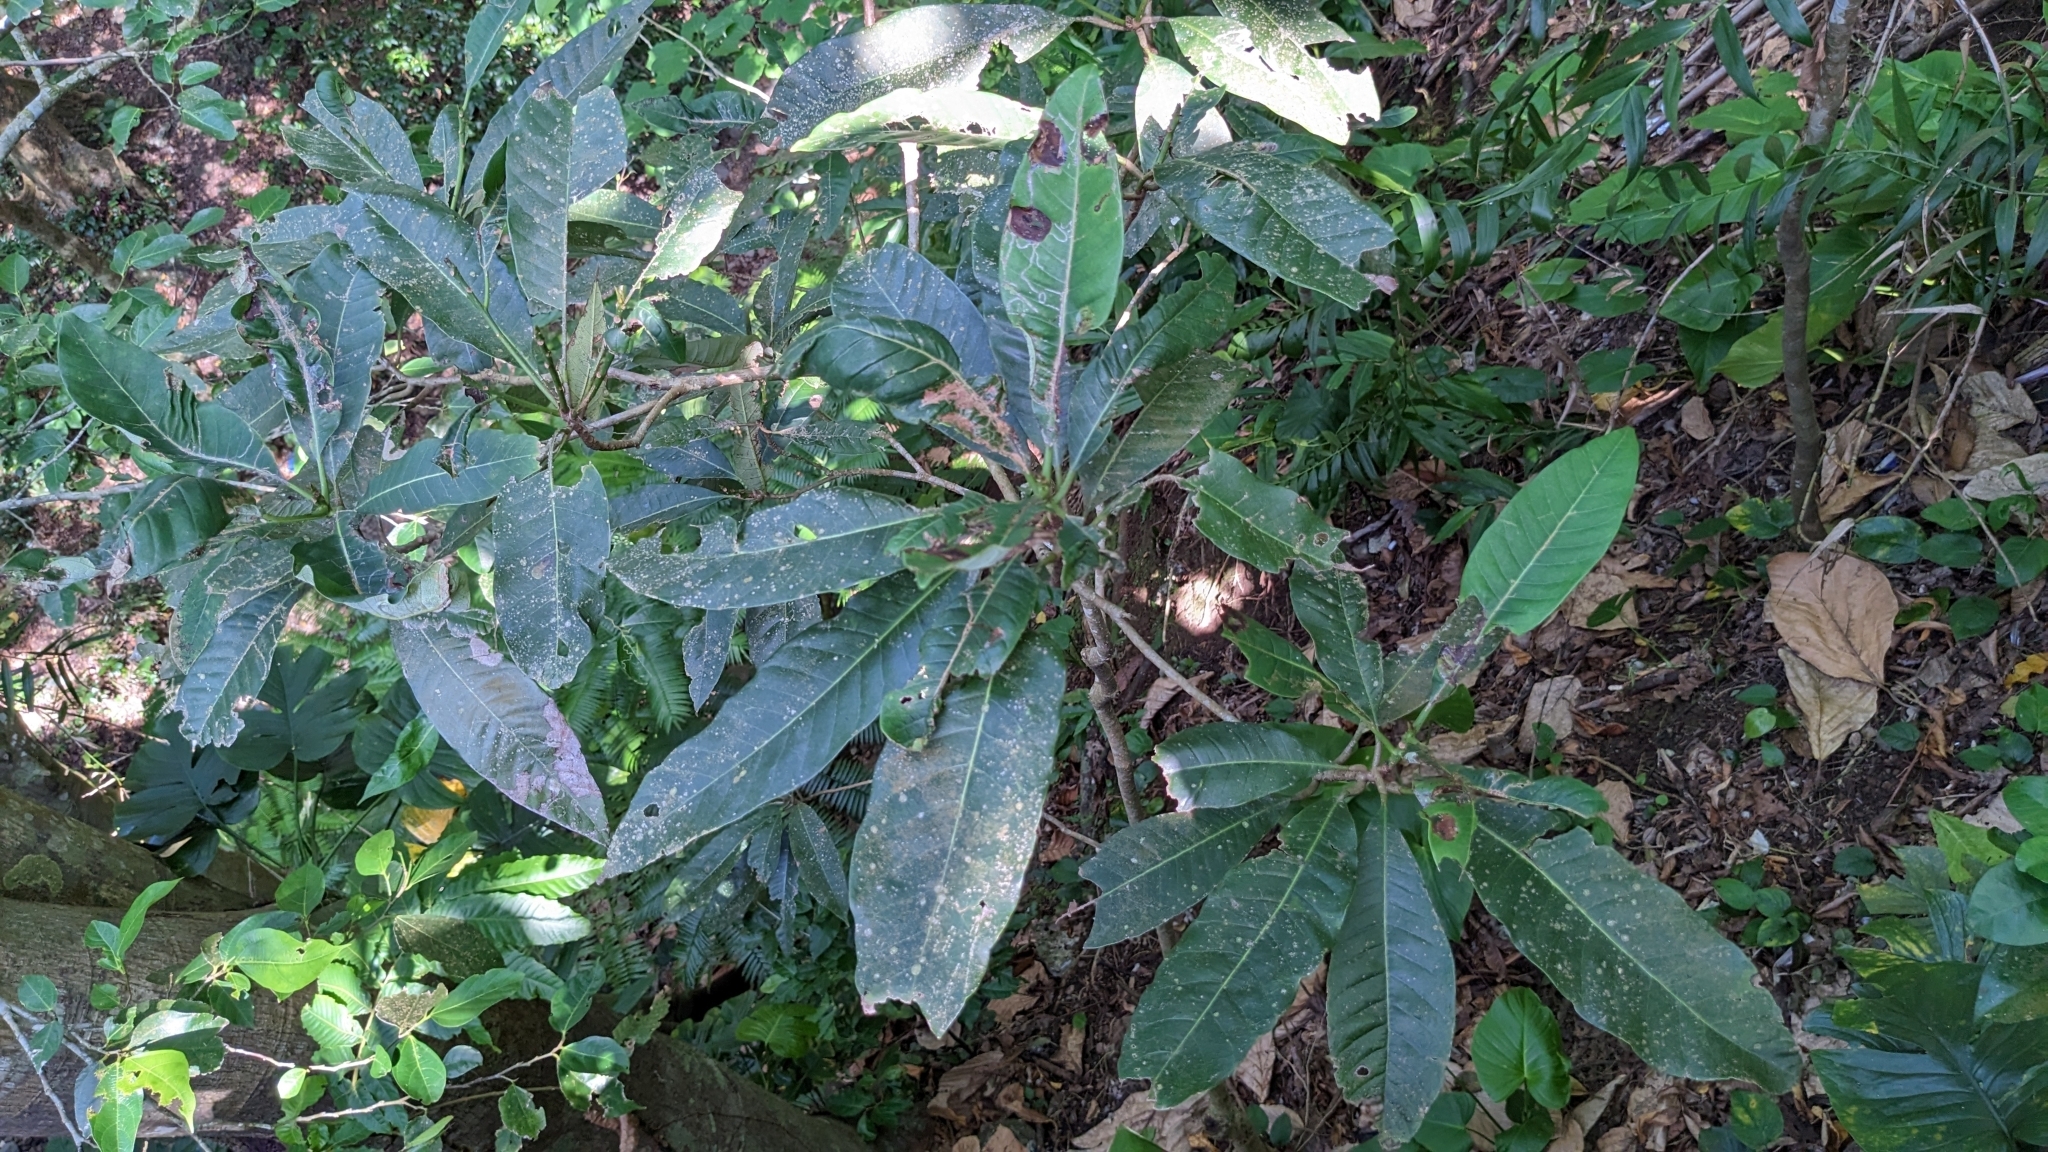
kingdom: Plantae
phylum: Tracheophyta
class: Magnoliopsida
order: Sapindales
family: Anacardiaceae
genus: Semecarpus
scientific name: Semecarpus longifolius
